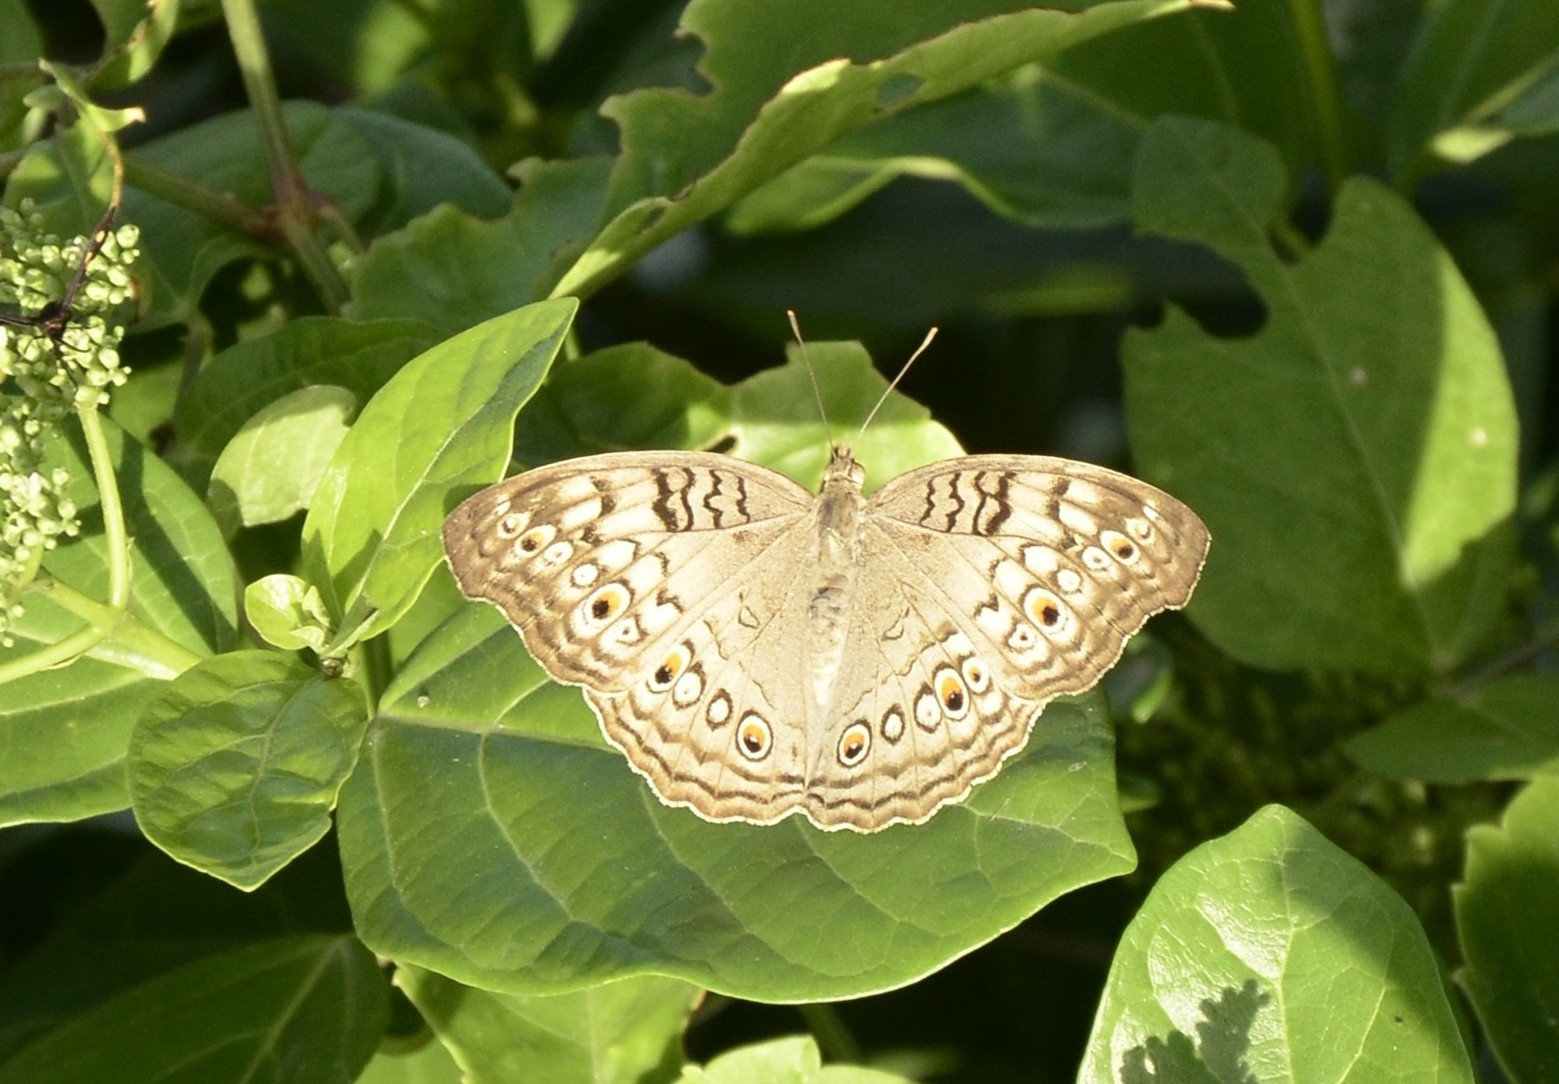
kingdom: Animalia
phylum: Arthropoda
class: Insecta
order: Lepidoptera
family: Nymphalidae
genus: Junonia
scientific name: Junonia atlites
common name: Grey pansy
